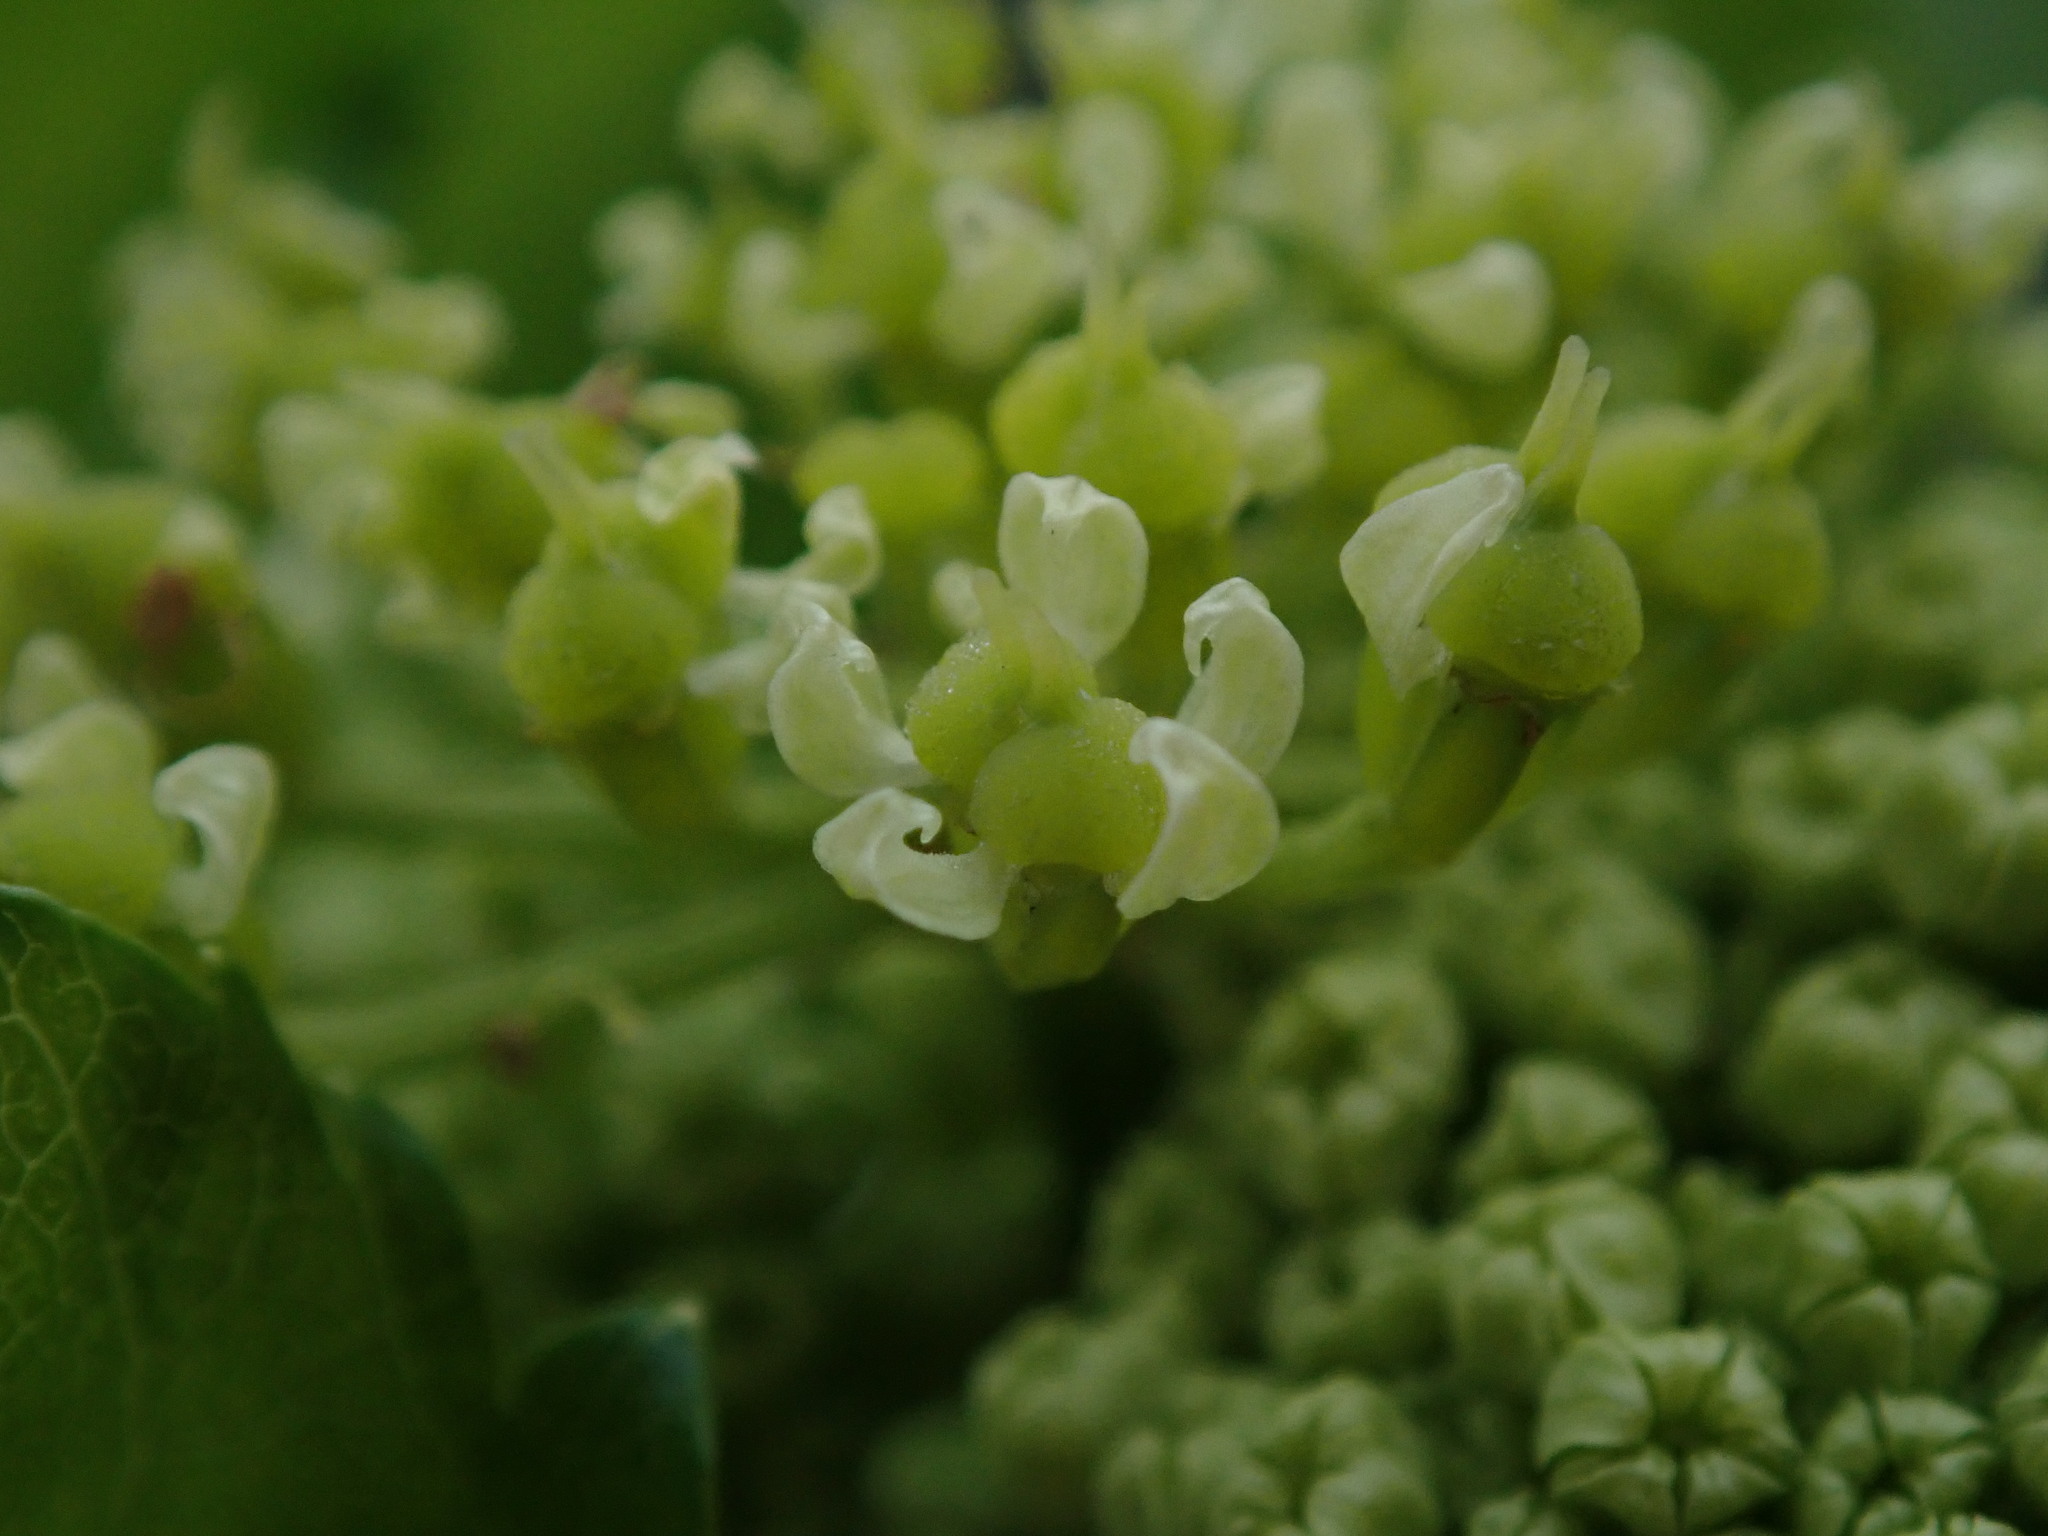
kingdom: Plantae
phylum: Tracheophyta
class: Magnoliopsida
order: Apiales
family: Apiaceae
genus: Smyrnium
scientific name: Smyrnium olusatrum
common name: Alexanders
